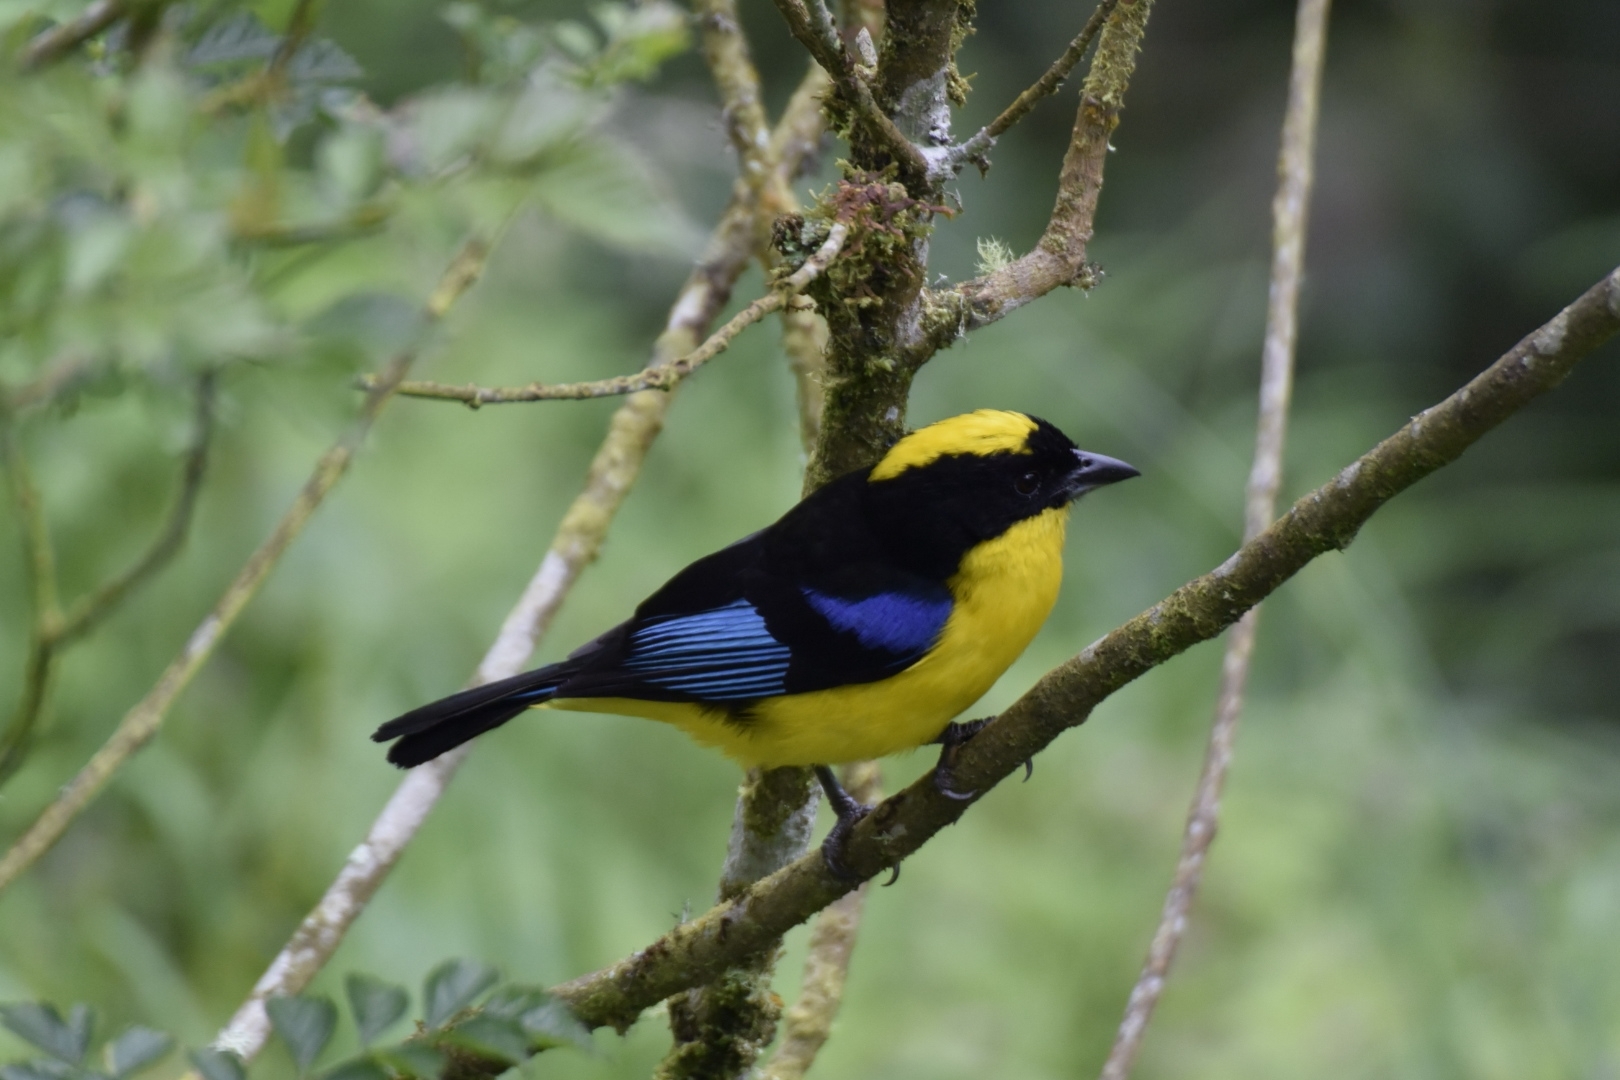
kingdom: Animalia
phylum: Chordata
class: Aves
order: Passeriformes
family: Thraupidae
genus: Anisognathus
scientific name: Anisognathus somptuosus
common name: Blue-winged mountain-tanager
